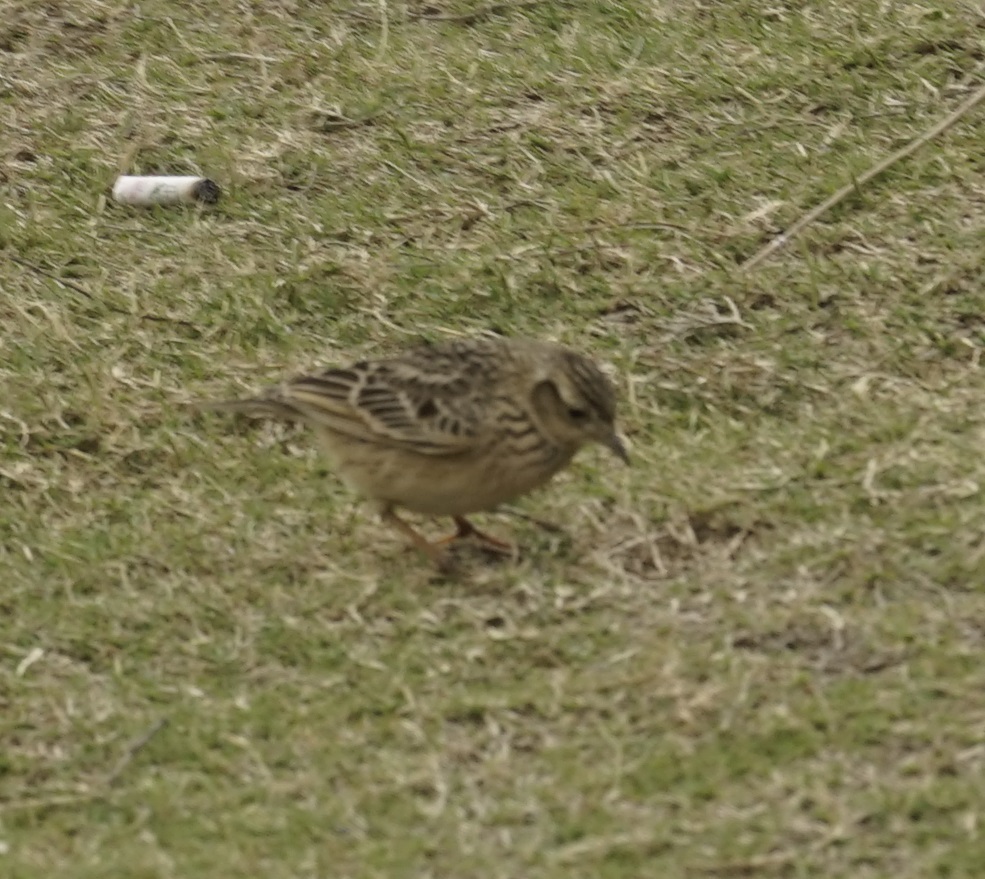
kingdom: Animalia
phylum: Chordata
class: Aves
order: Passeriformes
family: Alaudidae
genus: Alauda
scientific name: Alauda gulgula
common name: Oriental skylark
